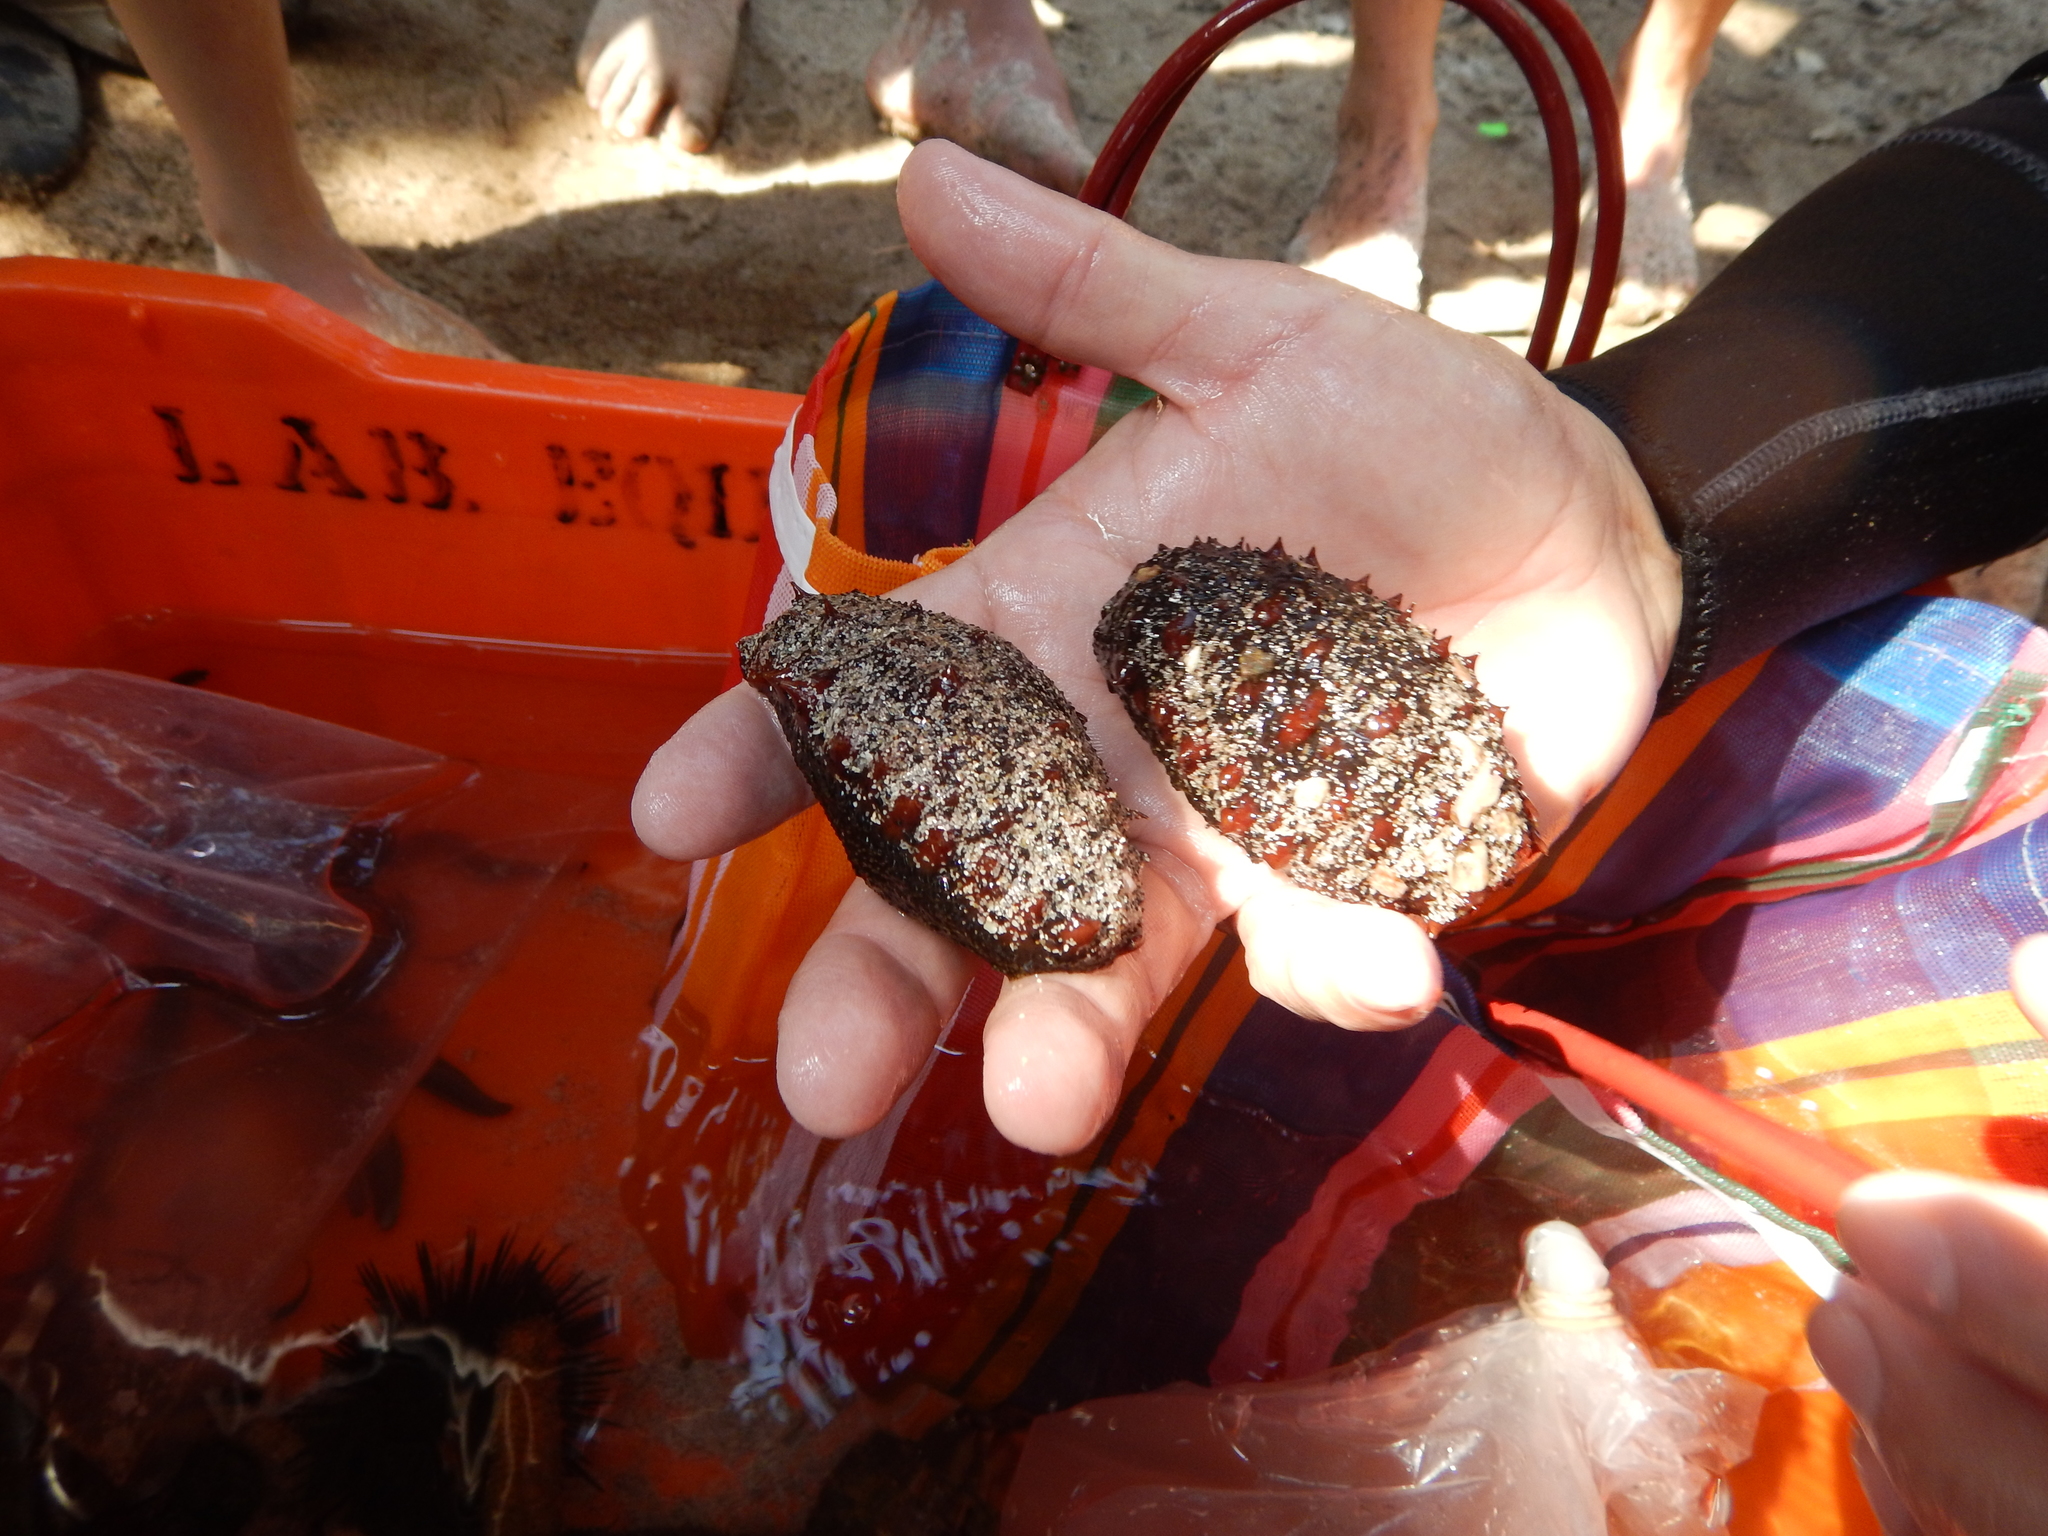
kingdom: Animalia
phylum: Echinodermata
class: Holothuroidea
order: Holothuriida
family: Holothuriidae
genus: Holothuria
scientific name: Holothuria inornata
